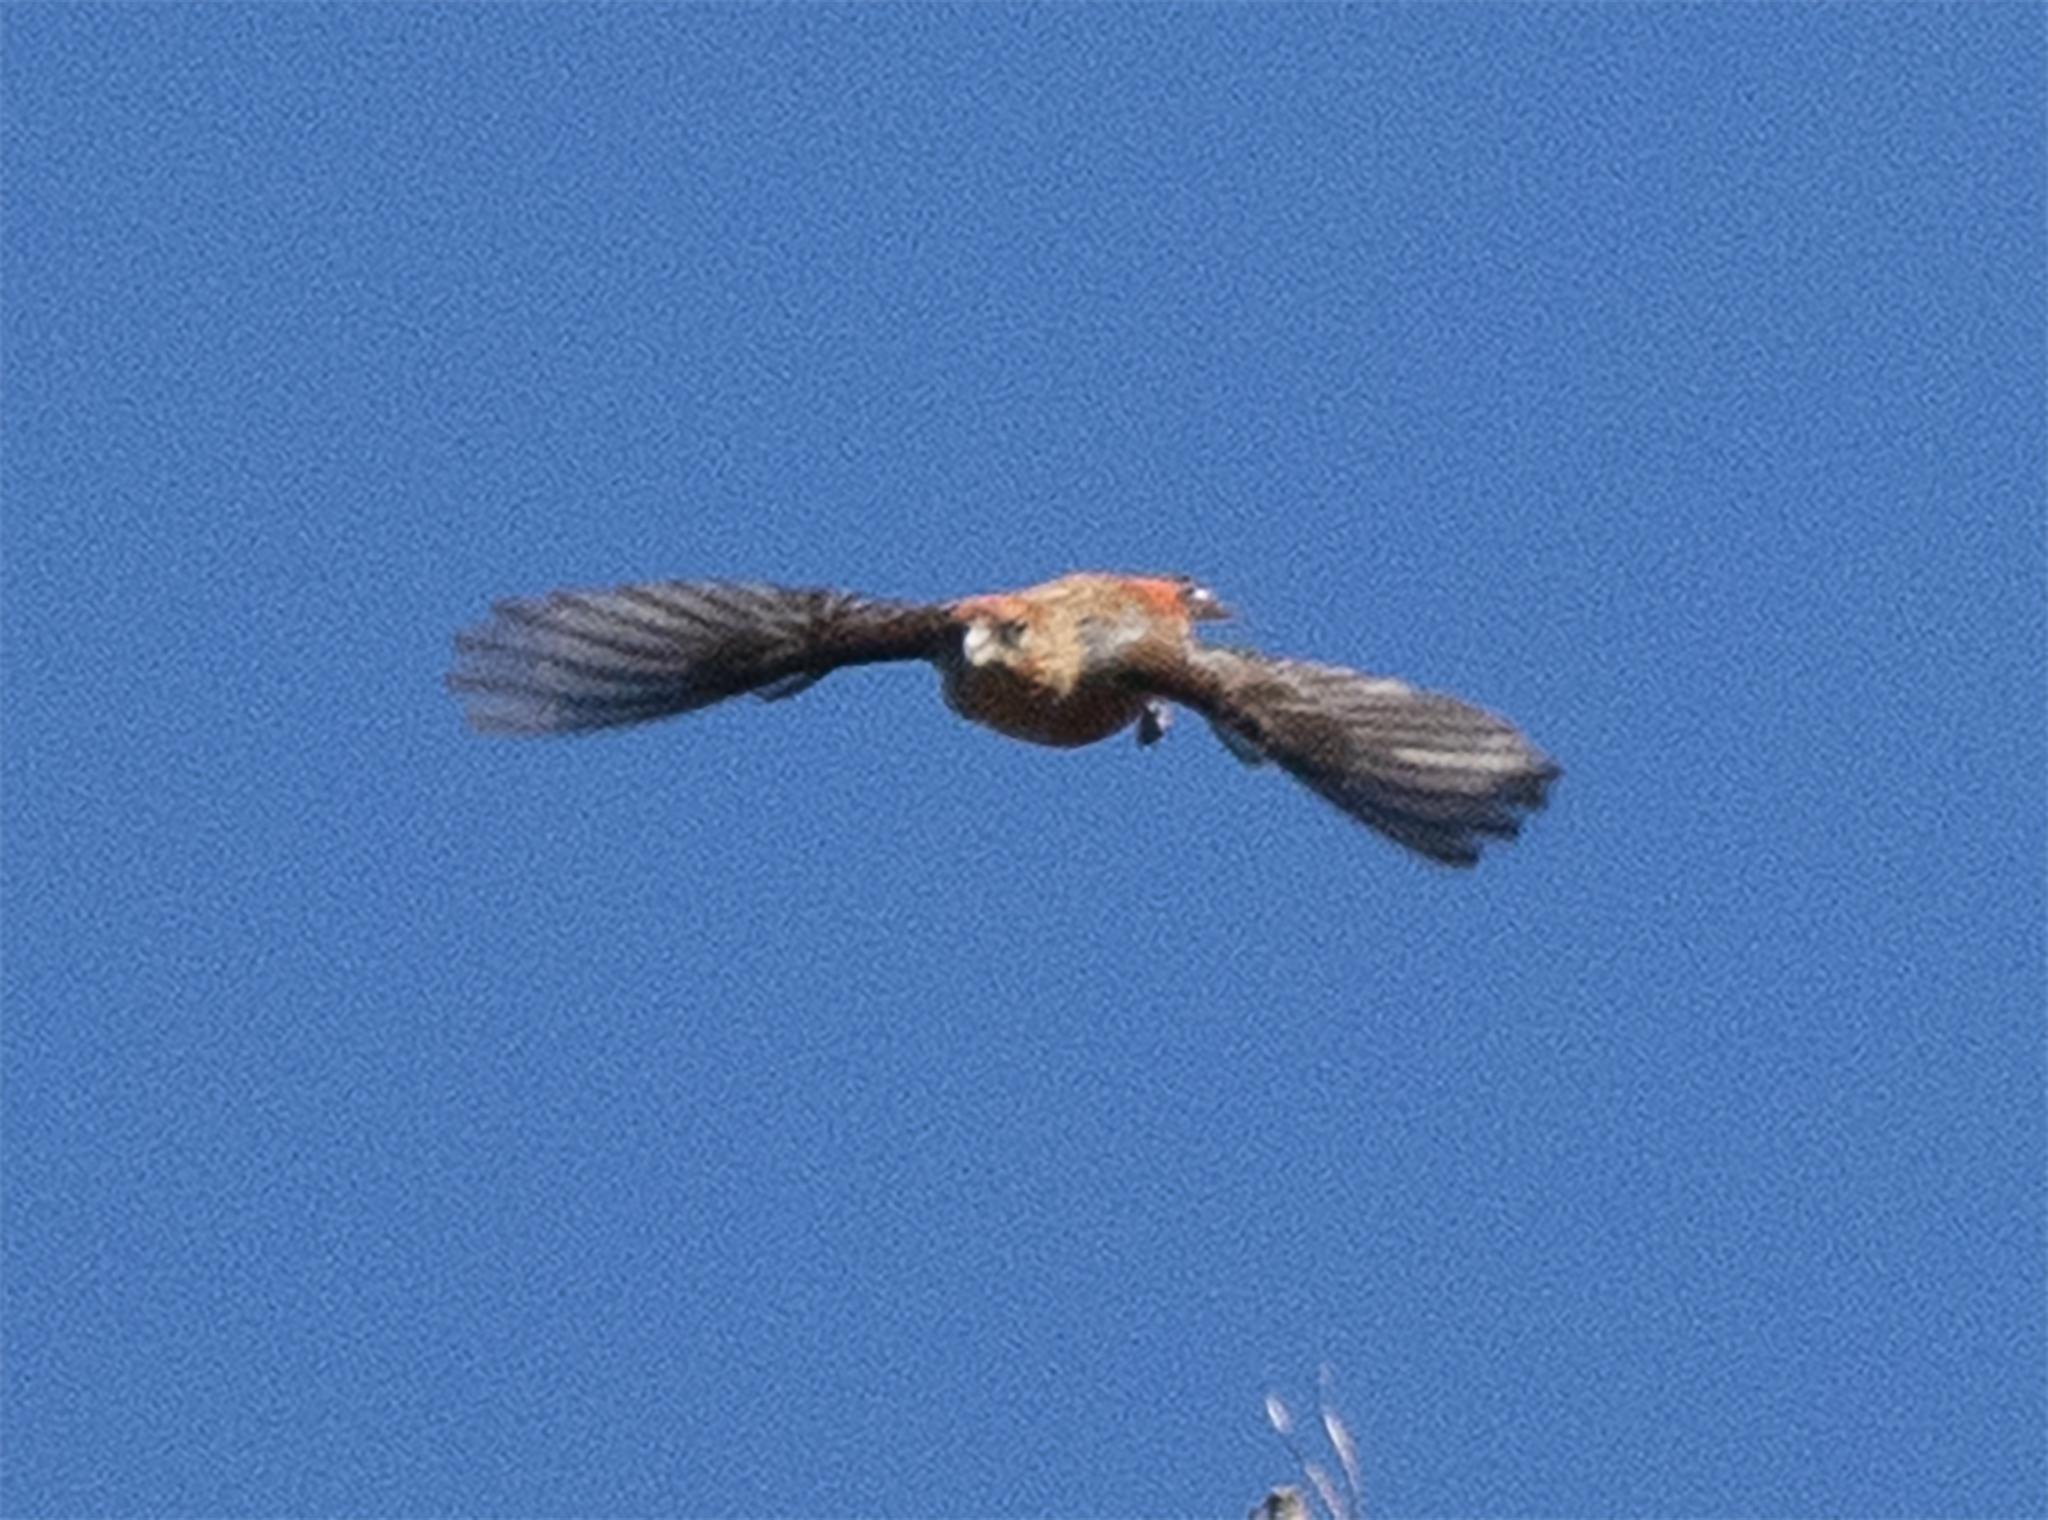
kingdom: Animalia
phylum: Chordata
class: Aves
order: Passeriformes
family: Fringillidae
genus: Loxia
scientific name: Loxia curvirostra
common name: Red crossbill
